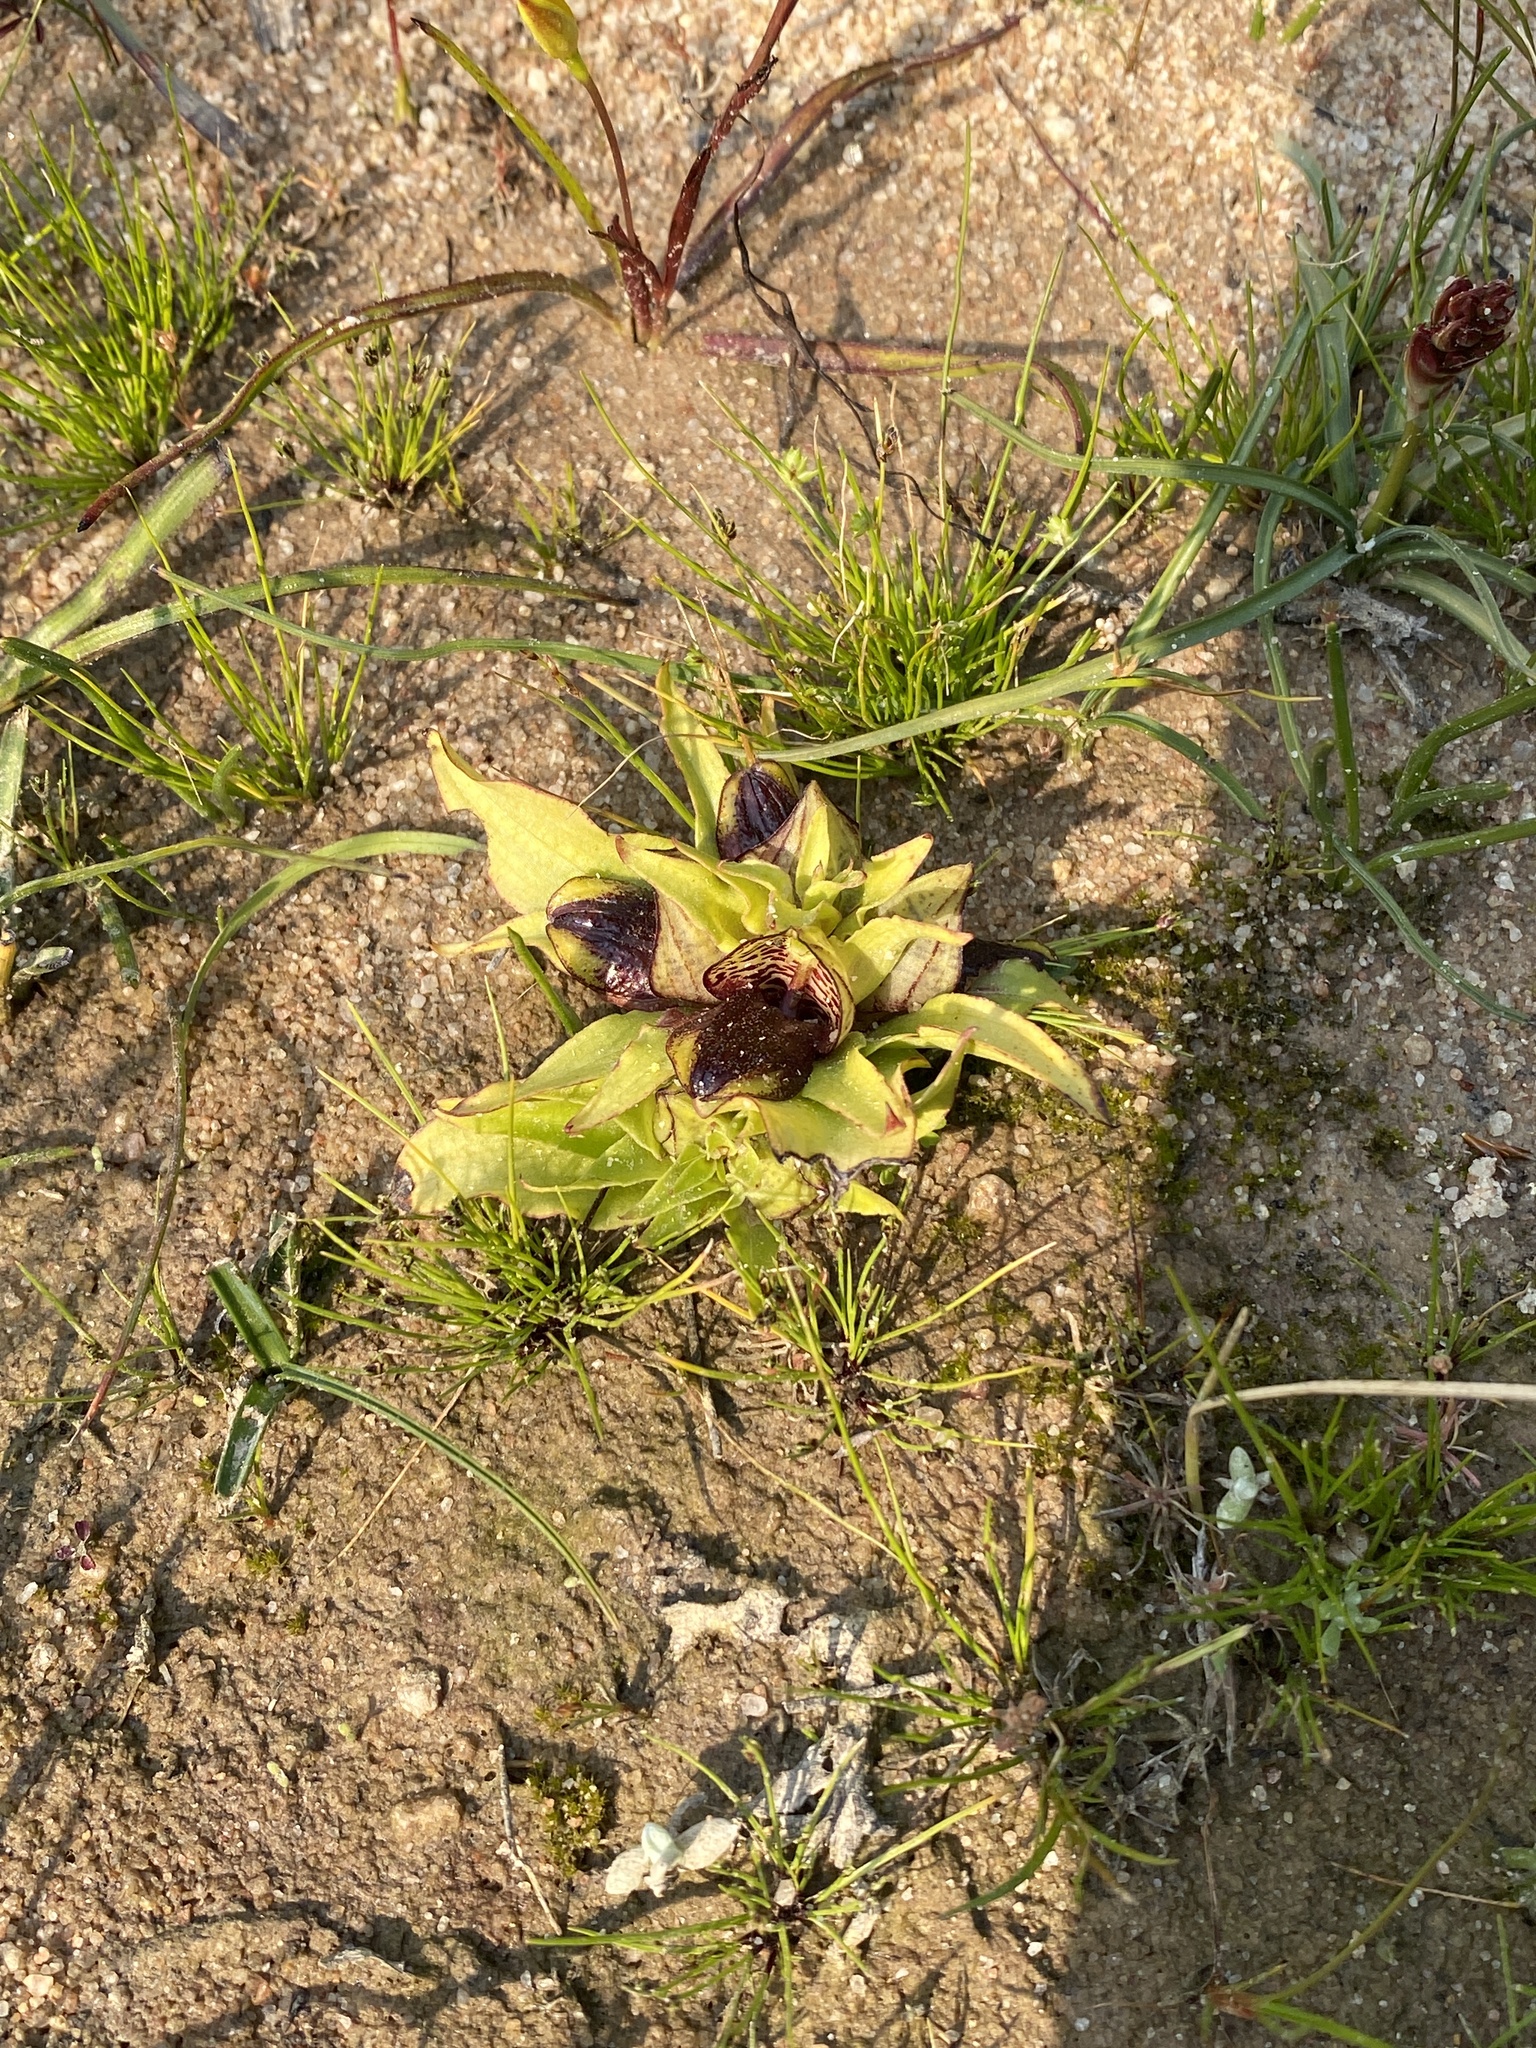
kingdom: Plantae
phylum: Tracheophyta
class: Liliopsida
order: Asparagales
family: Orchidaceae
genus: Satyrium
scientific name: Satyrium pumilum
